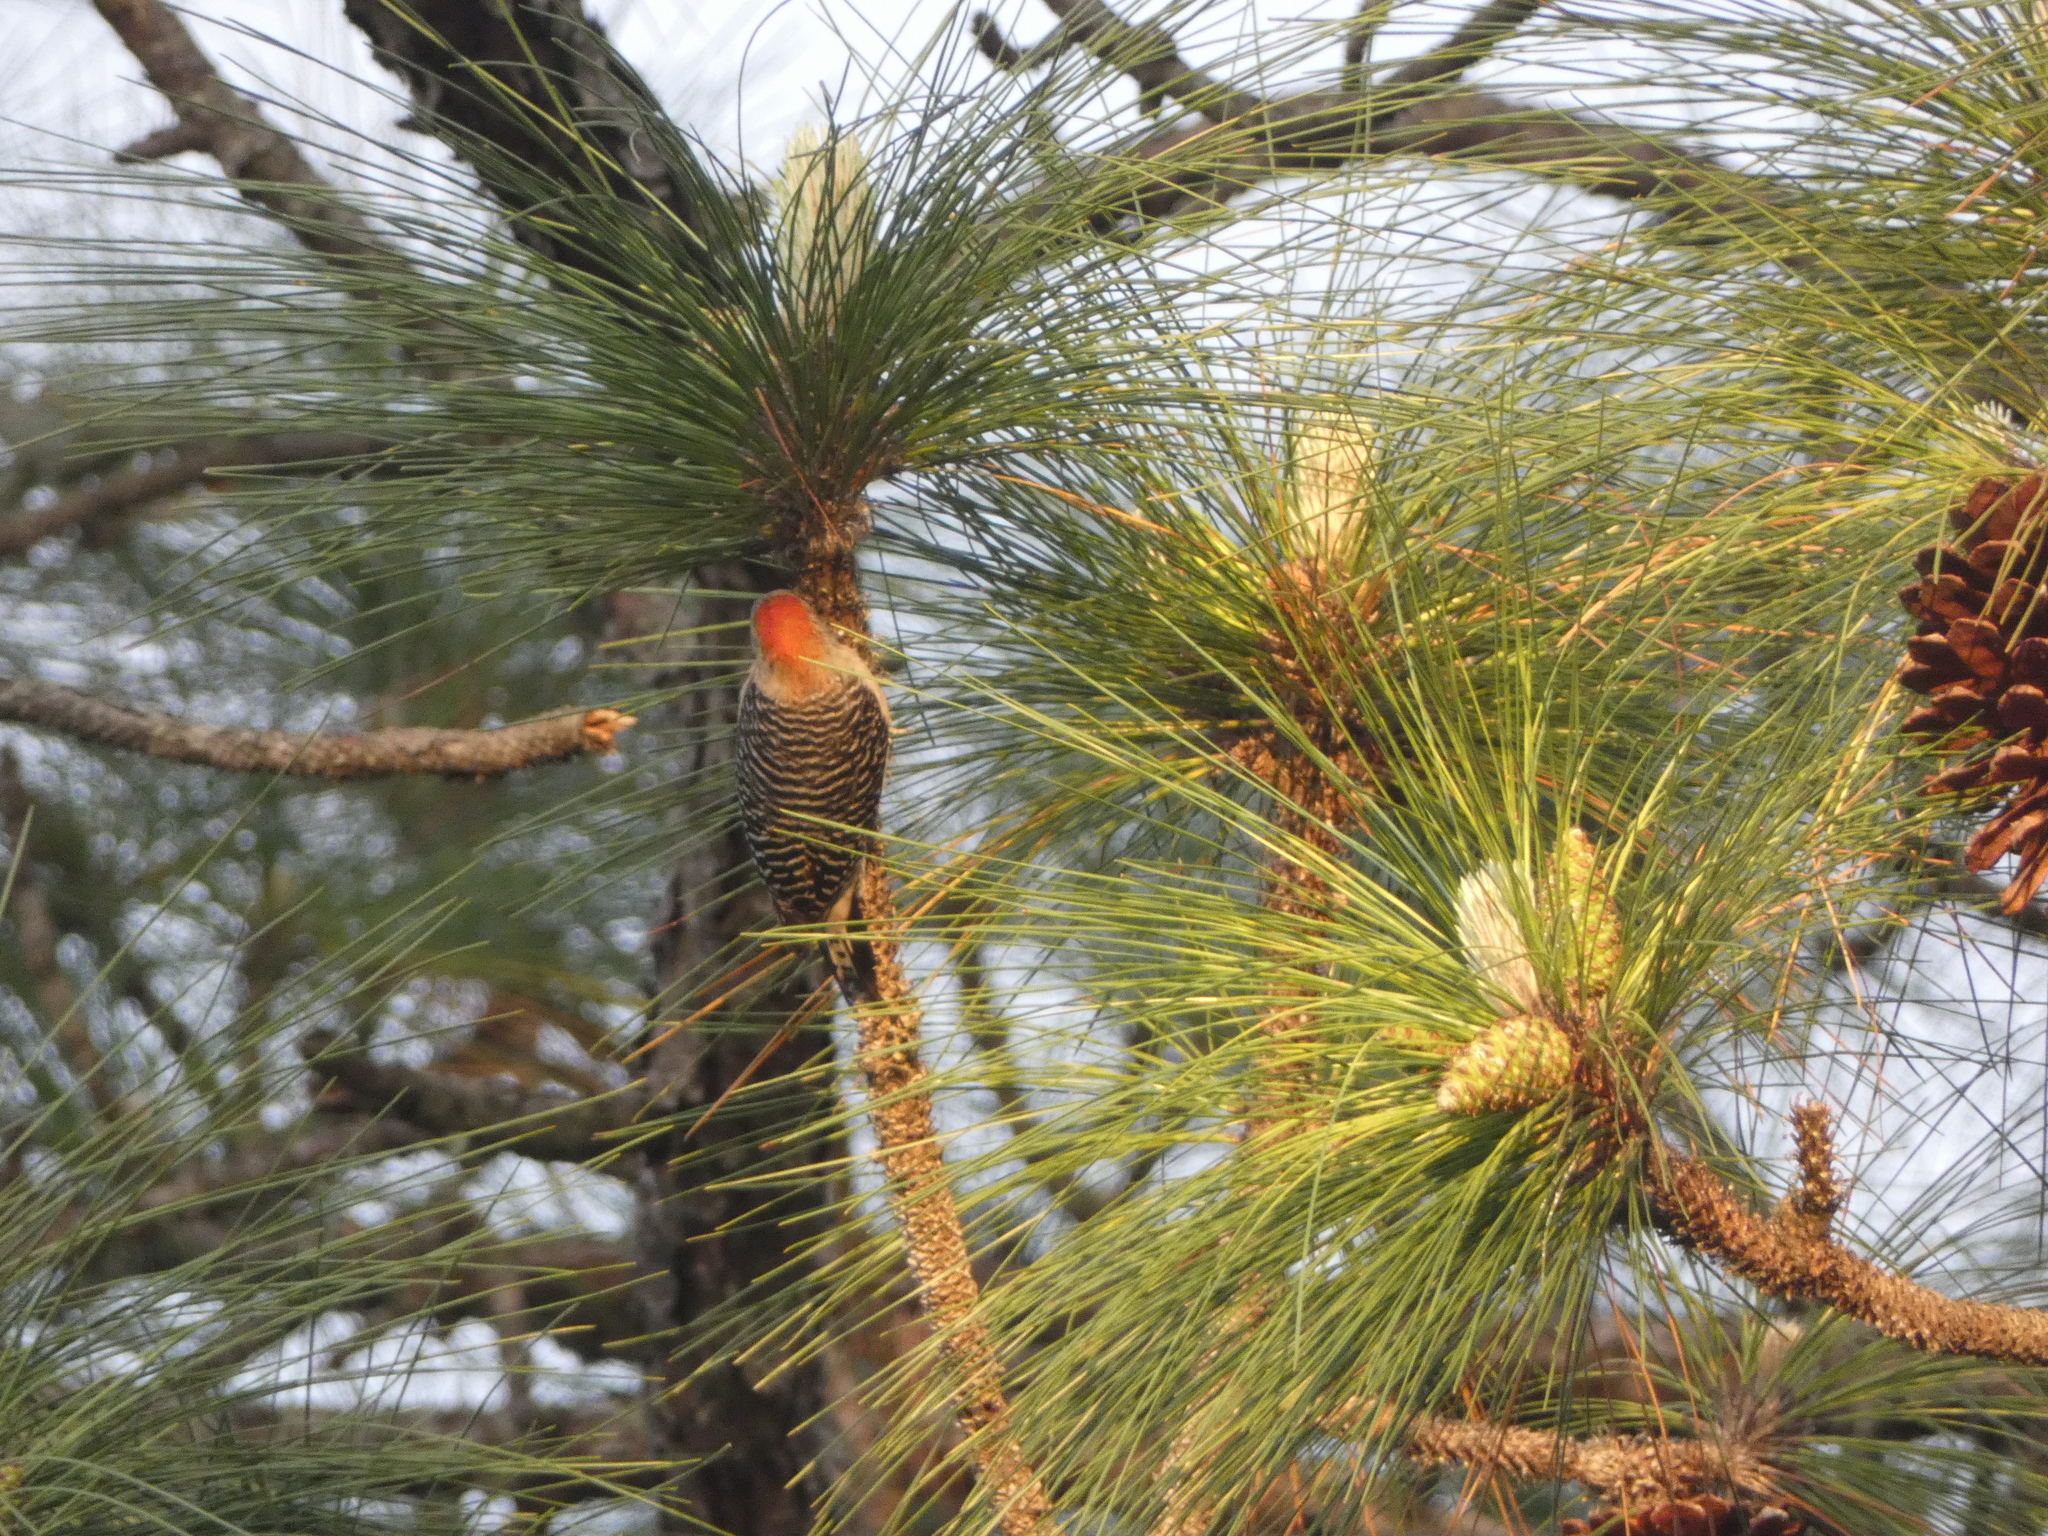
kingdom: Animalia
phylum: Chordata
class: Aves
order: Piciformes
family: Picidae
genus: Melanerpes
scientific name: Melanerpes carolinus
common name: Red-bellied woodpecker
